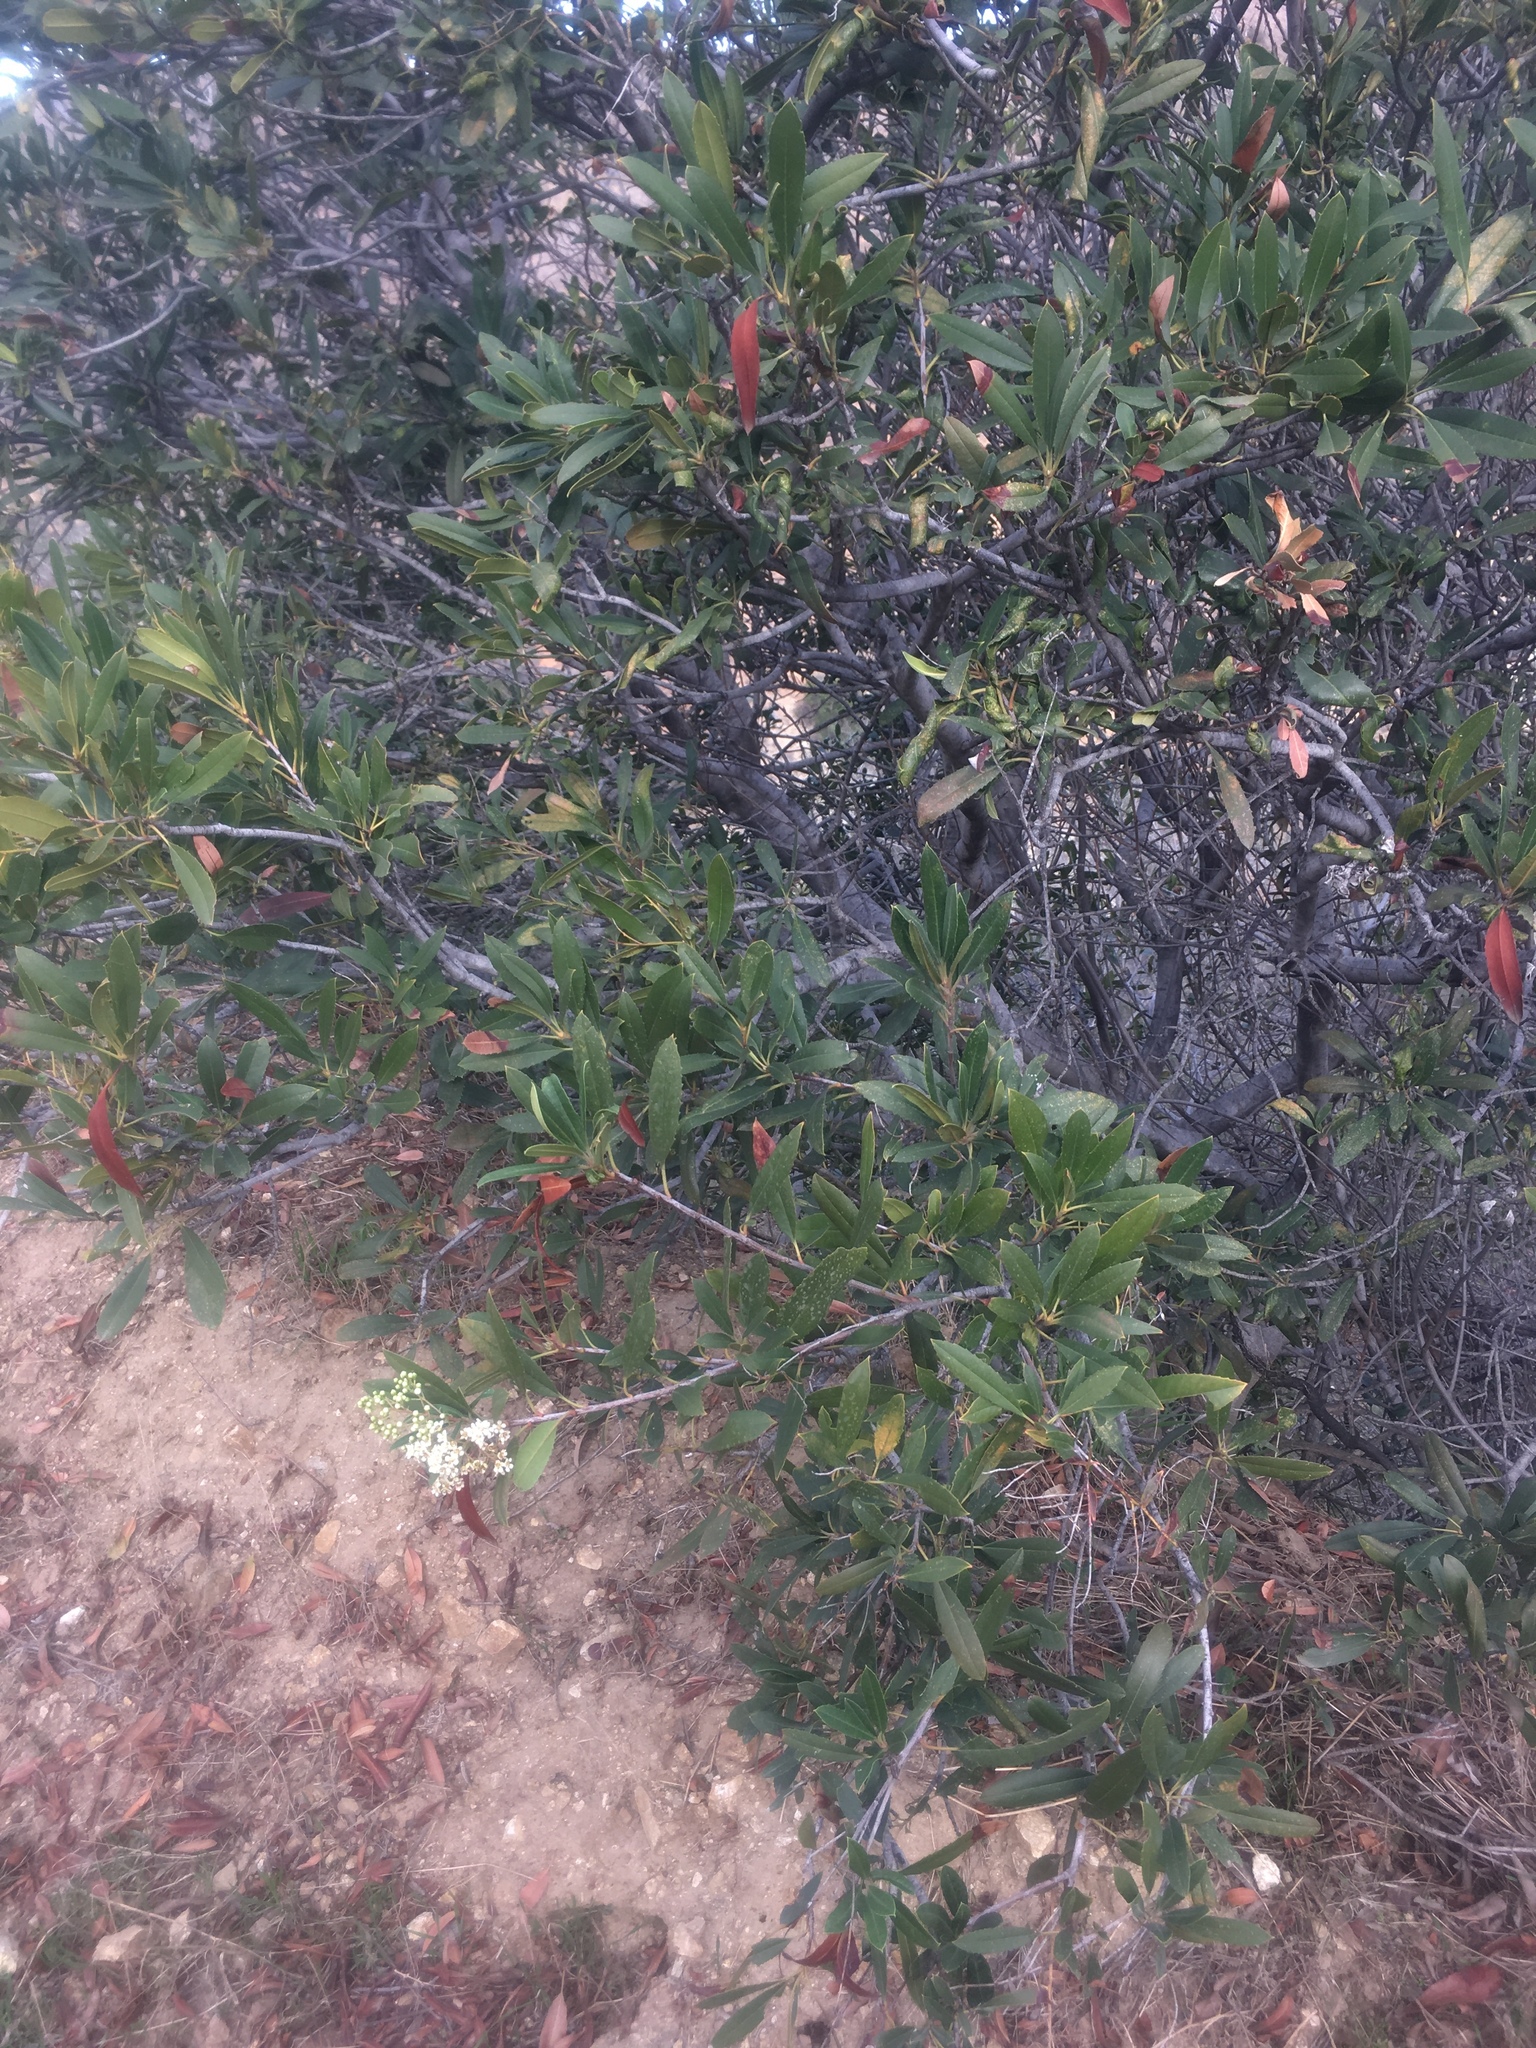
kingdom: Plantae
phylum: Tracheophyta
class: Magnoliopsida
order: Rosales
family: Rosaceae
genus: Heteromeles
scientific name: Heteromeles arbutifolia
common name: California-holly
